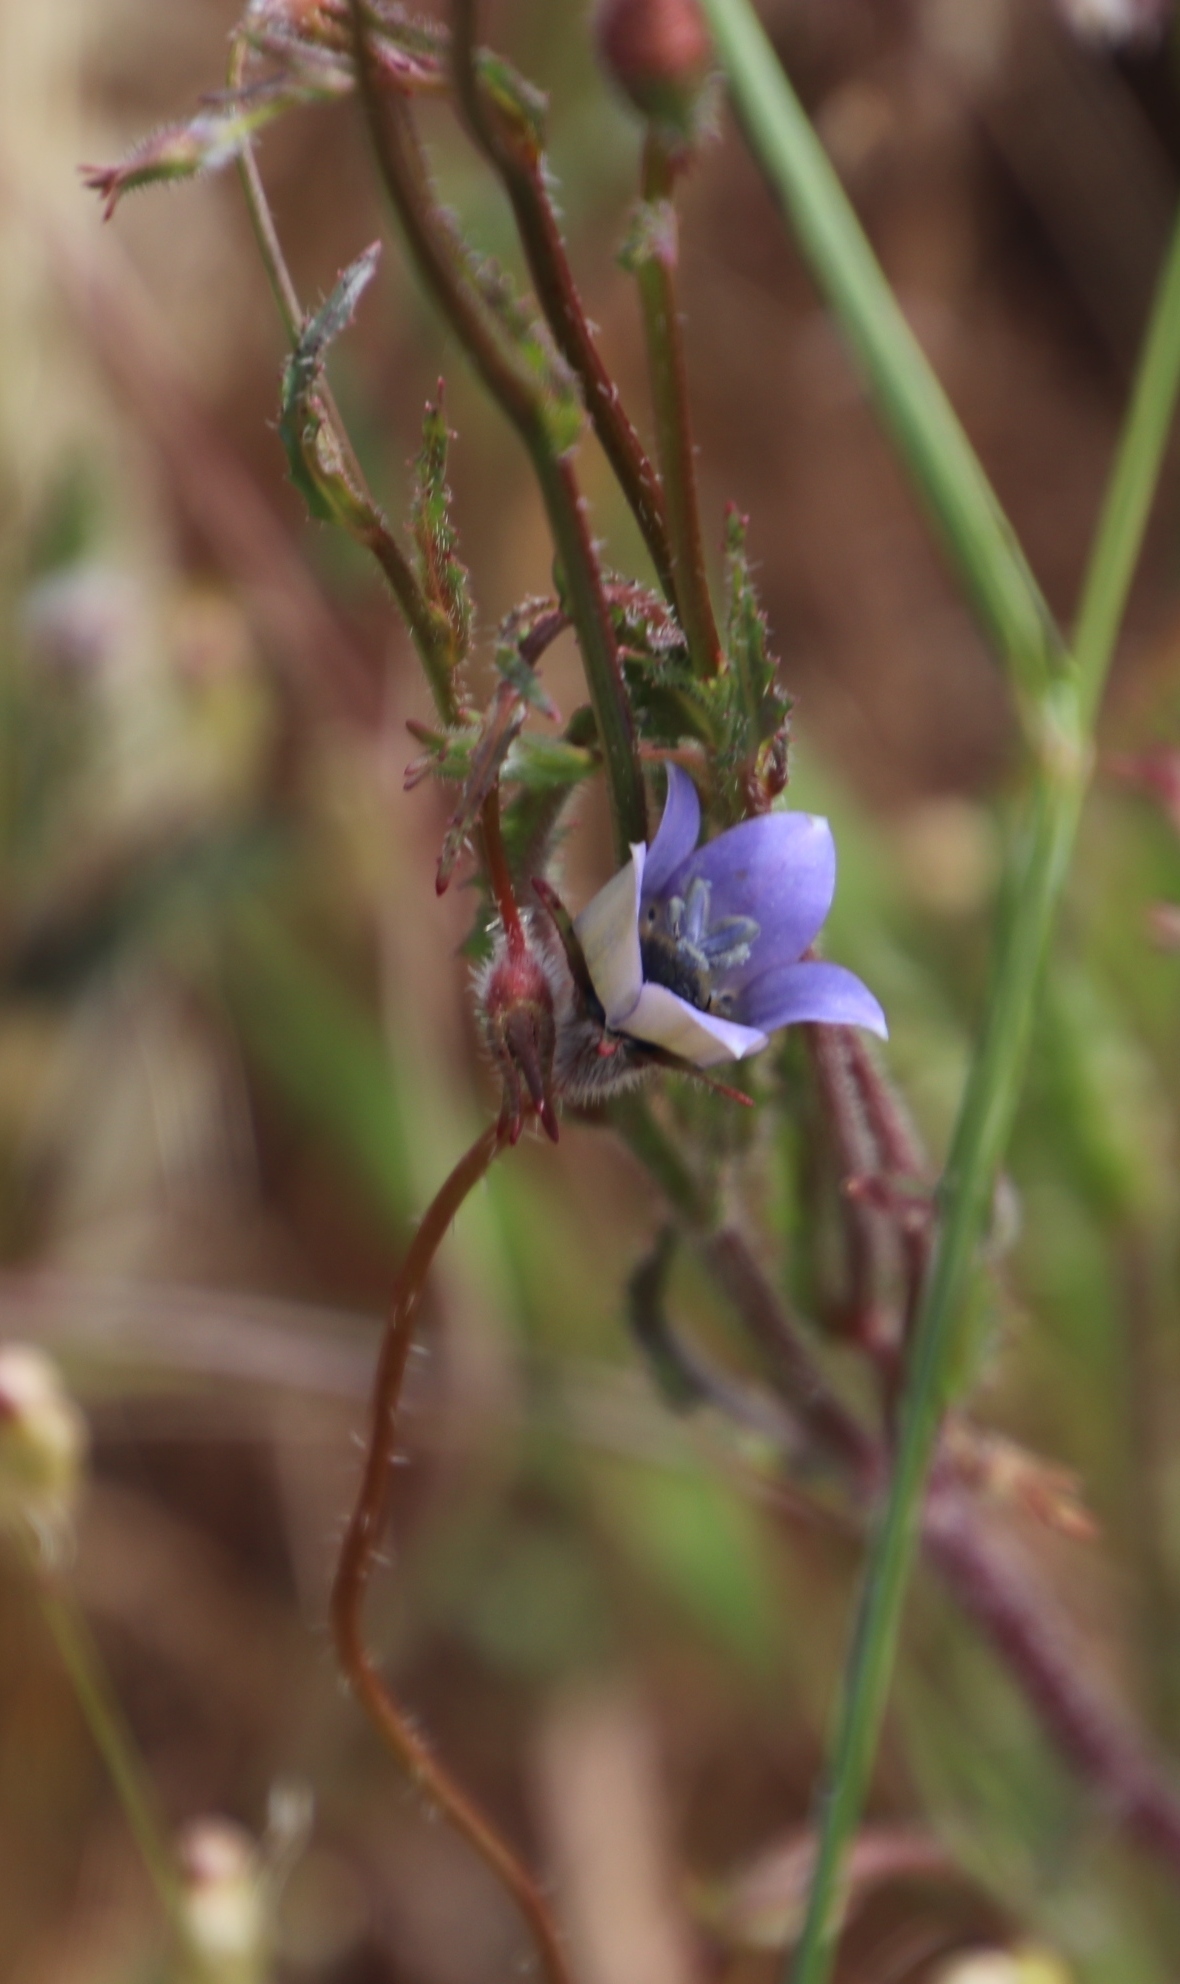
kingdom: Plantae
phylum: Tracheophyta
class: Magnoliopsida
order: Asterales
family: Campanulaceae
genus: Wahlenbergia
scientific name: Wahlenbergia capensis
